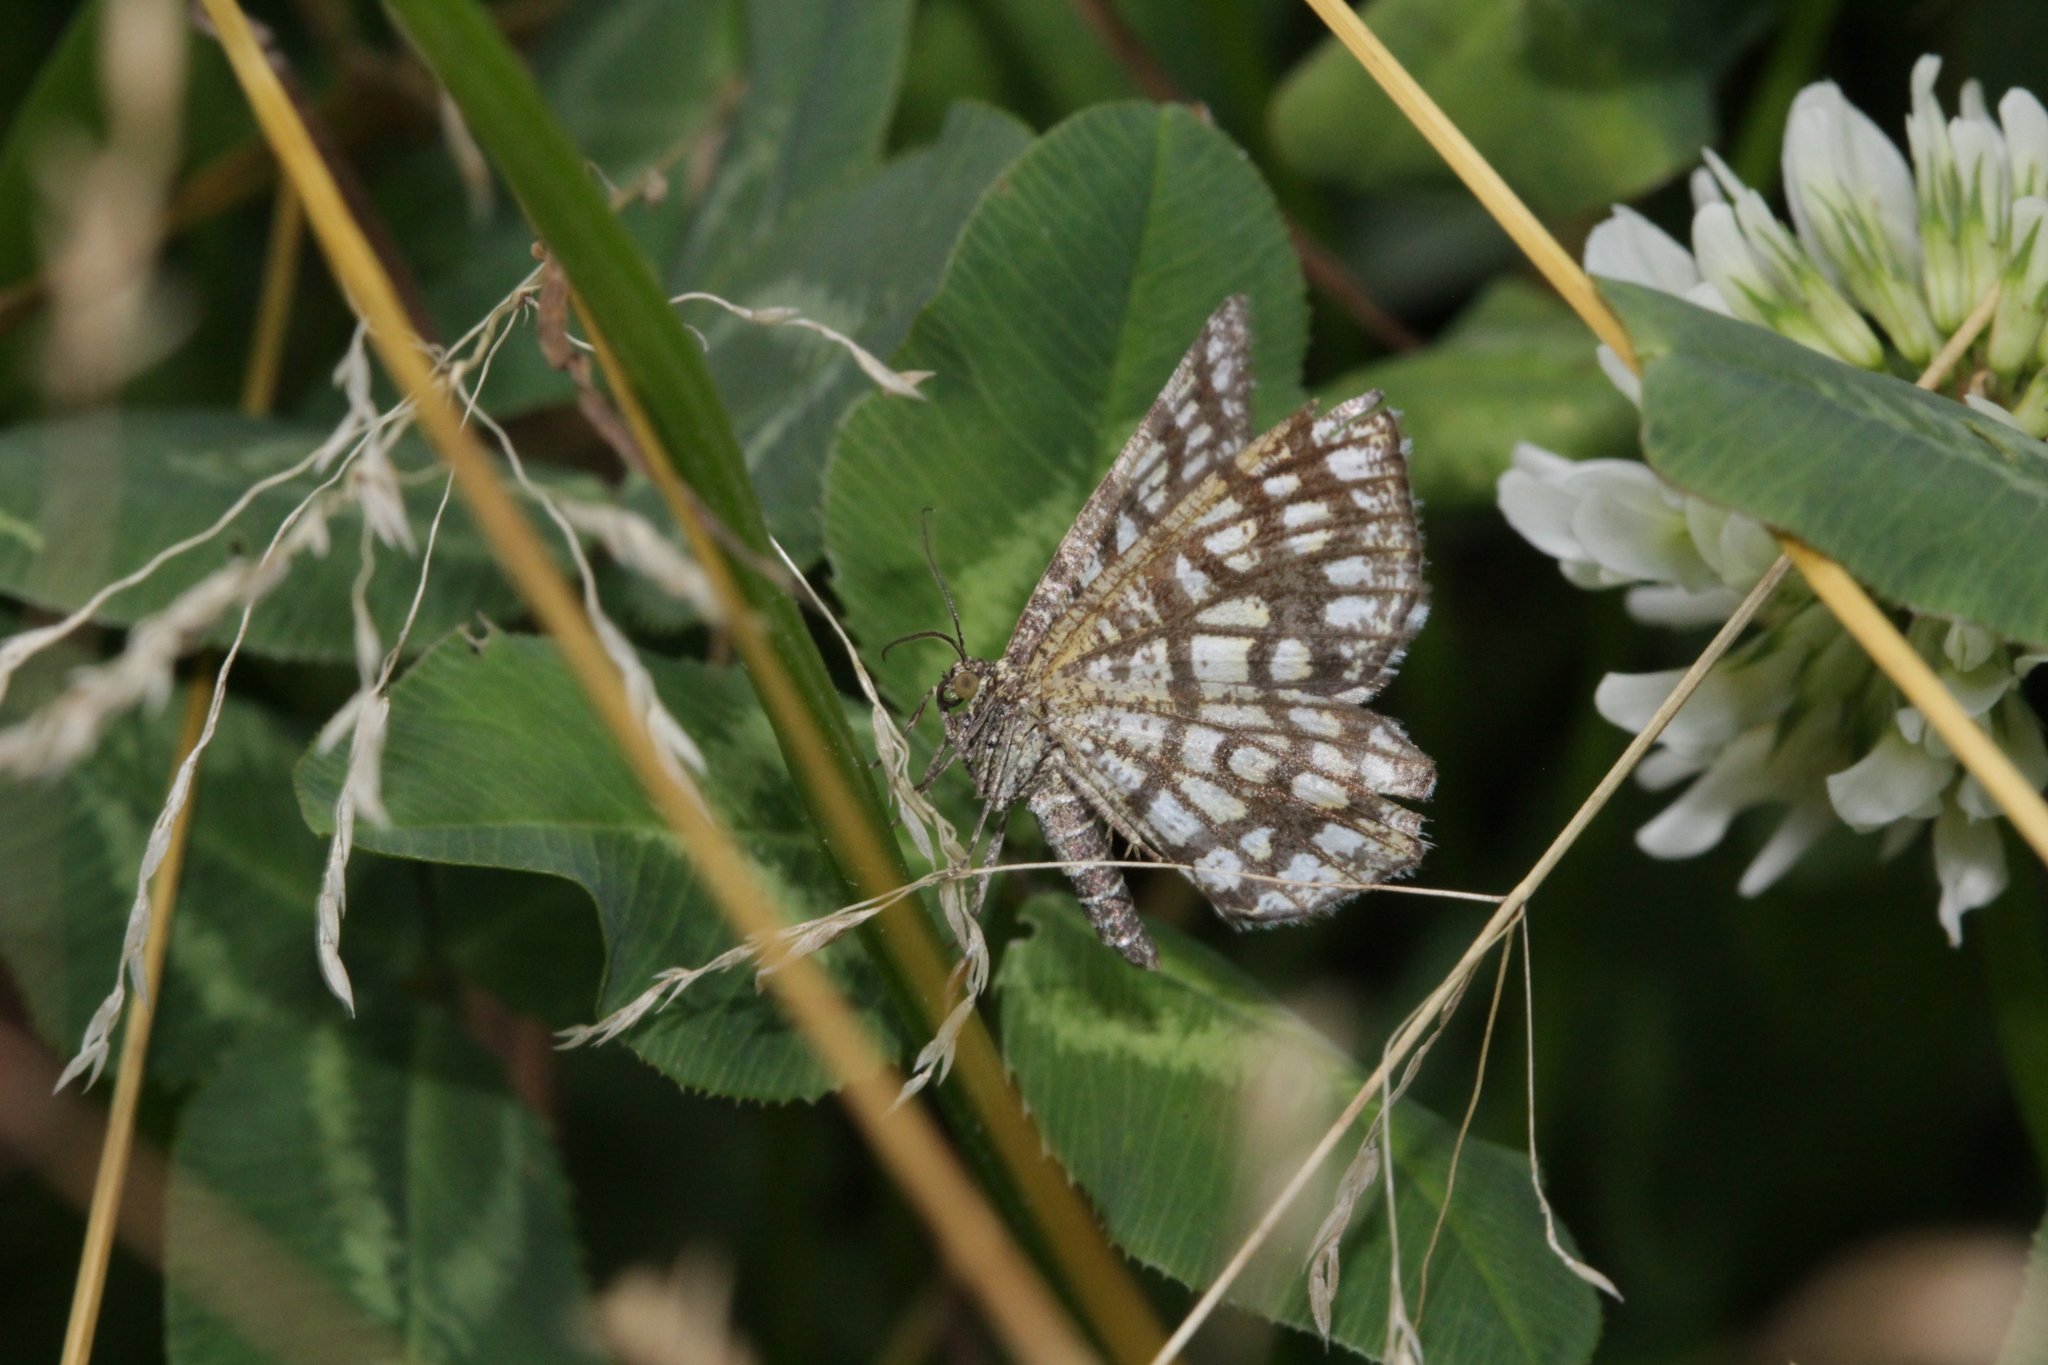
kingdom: Animalia
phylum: Arthropoda
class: Insecta
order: Lepidoptera
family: Geometridae
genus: Chiasmia
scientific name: Chiasmia clathrata
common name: Latticed heath
